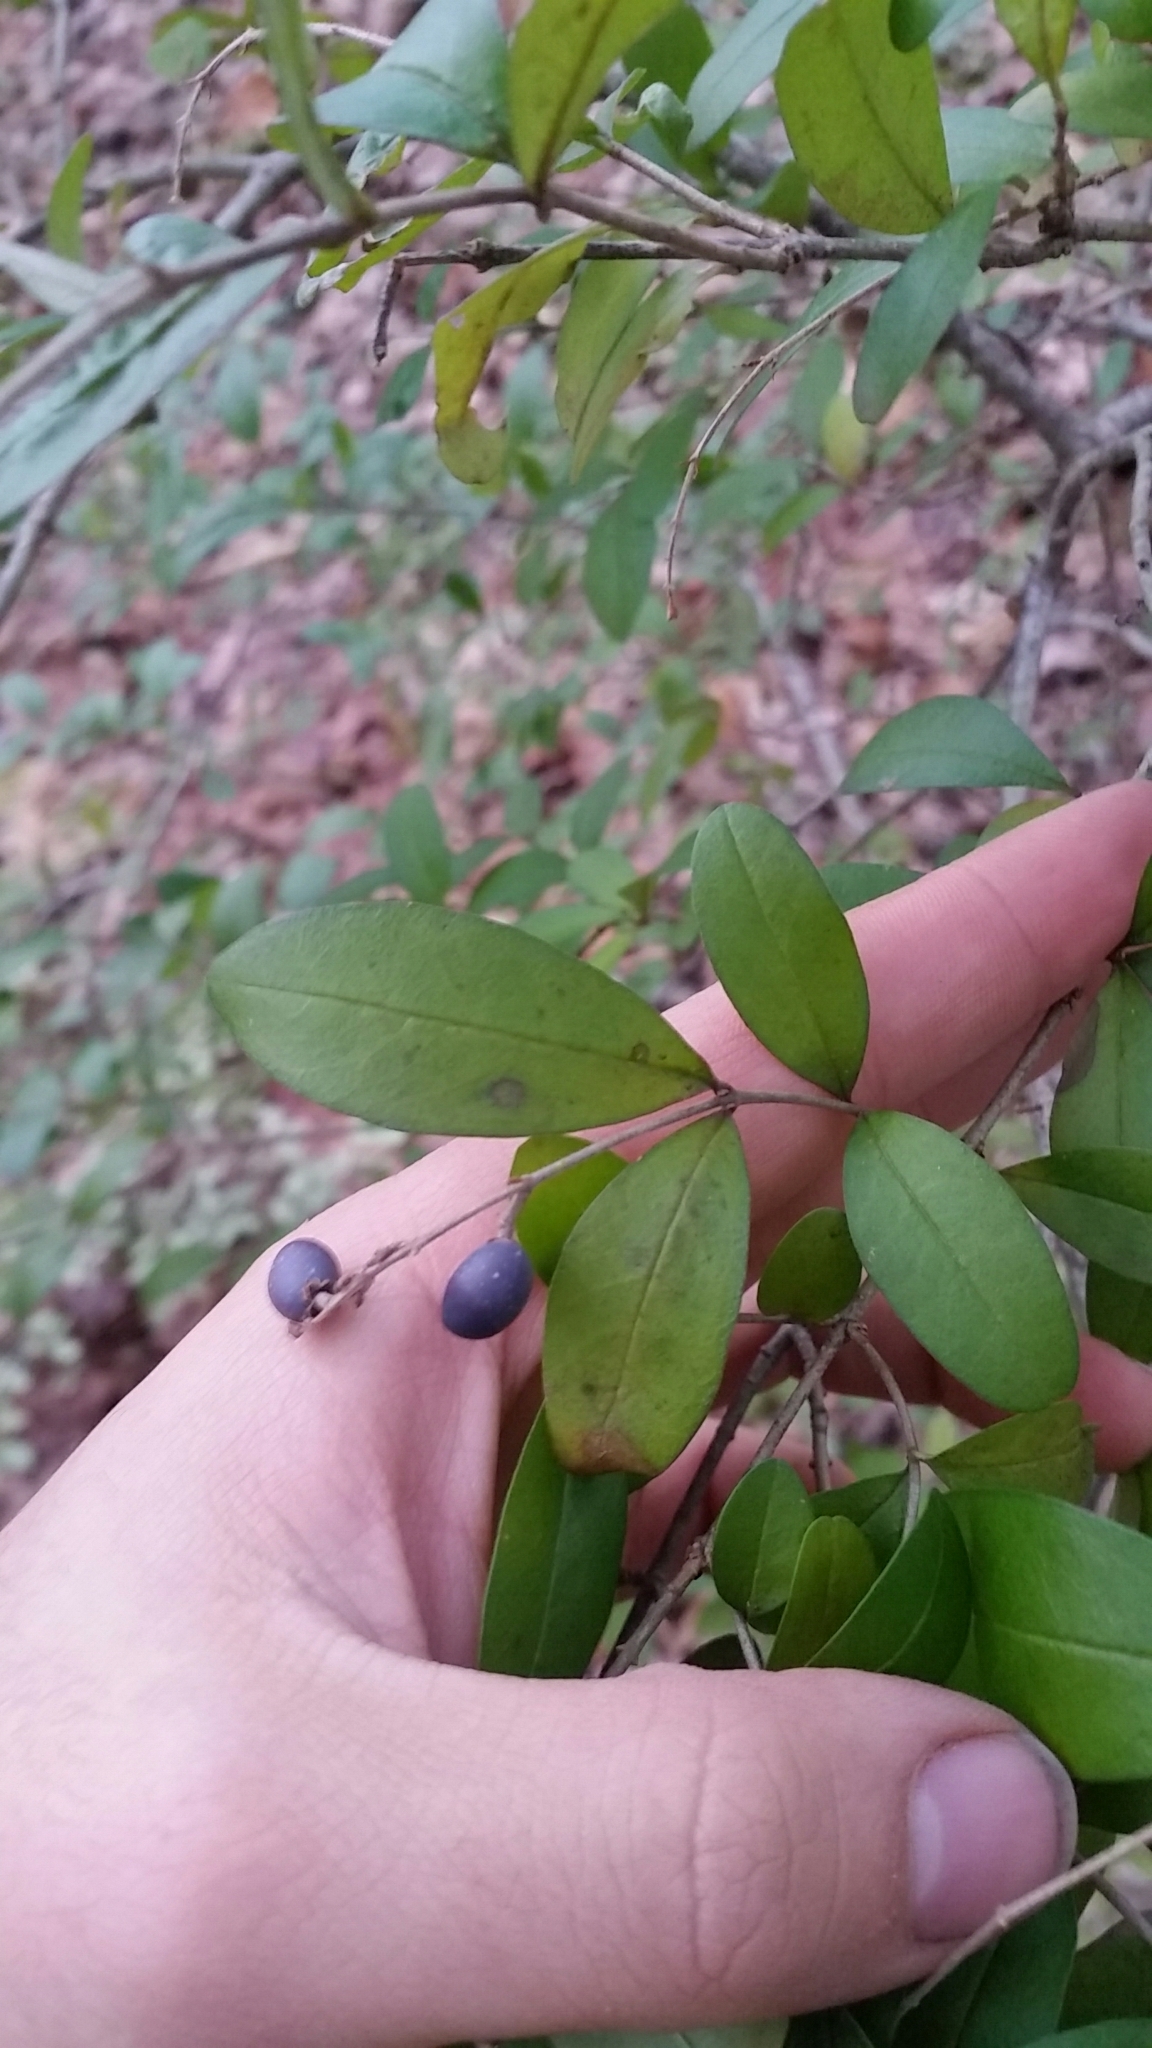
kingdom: Plantae
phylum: Tracheophyta
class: Magnoliopsida
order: Lamiales
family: Oleaceae
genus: Ligustrum
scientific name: Ligustrum obtusifolium
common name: Border privet
